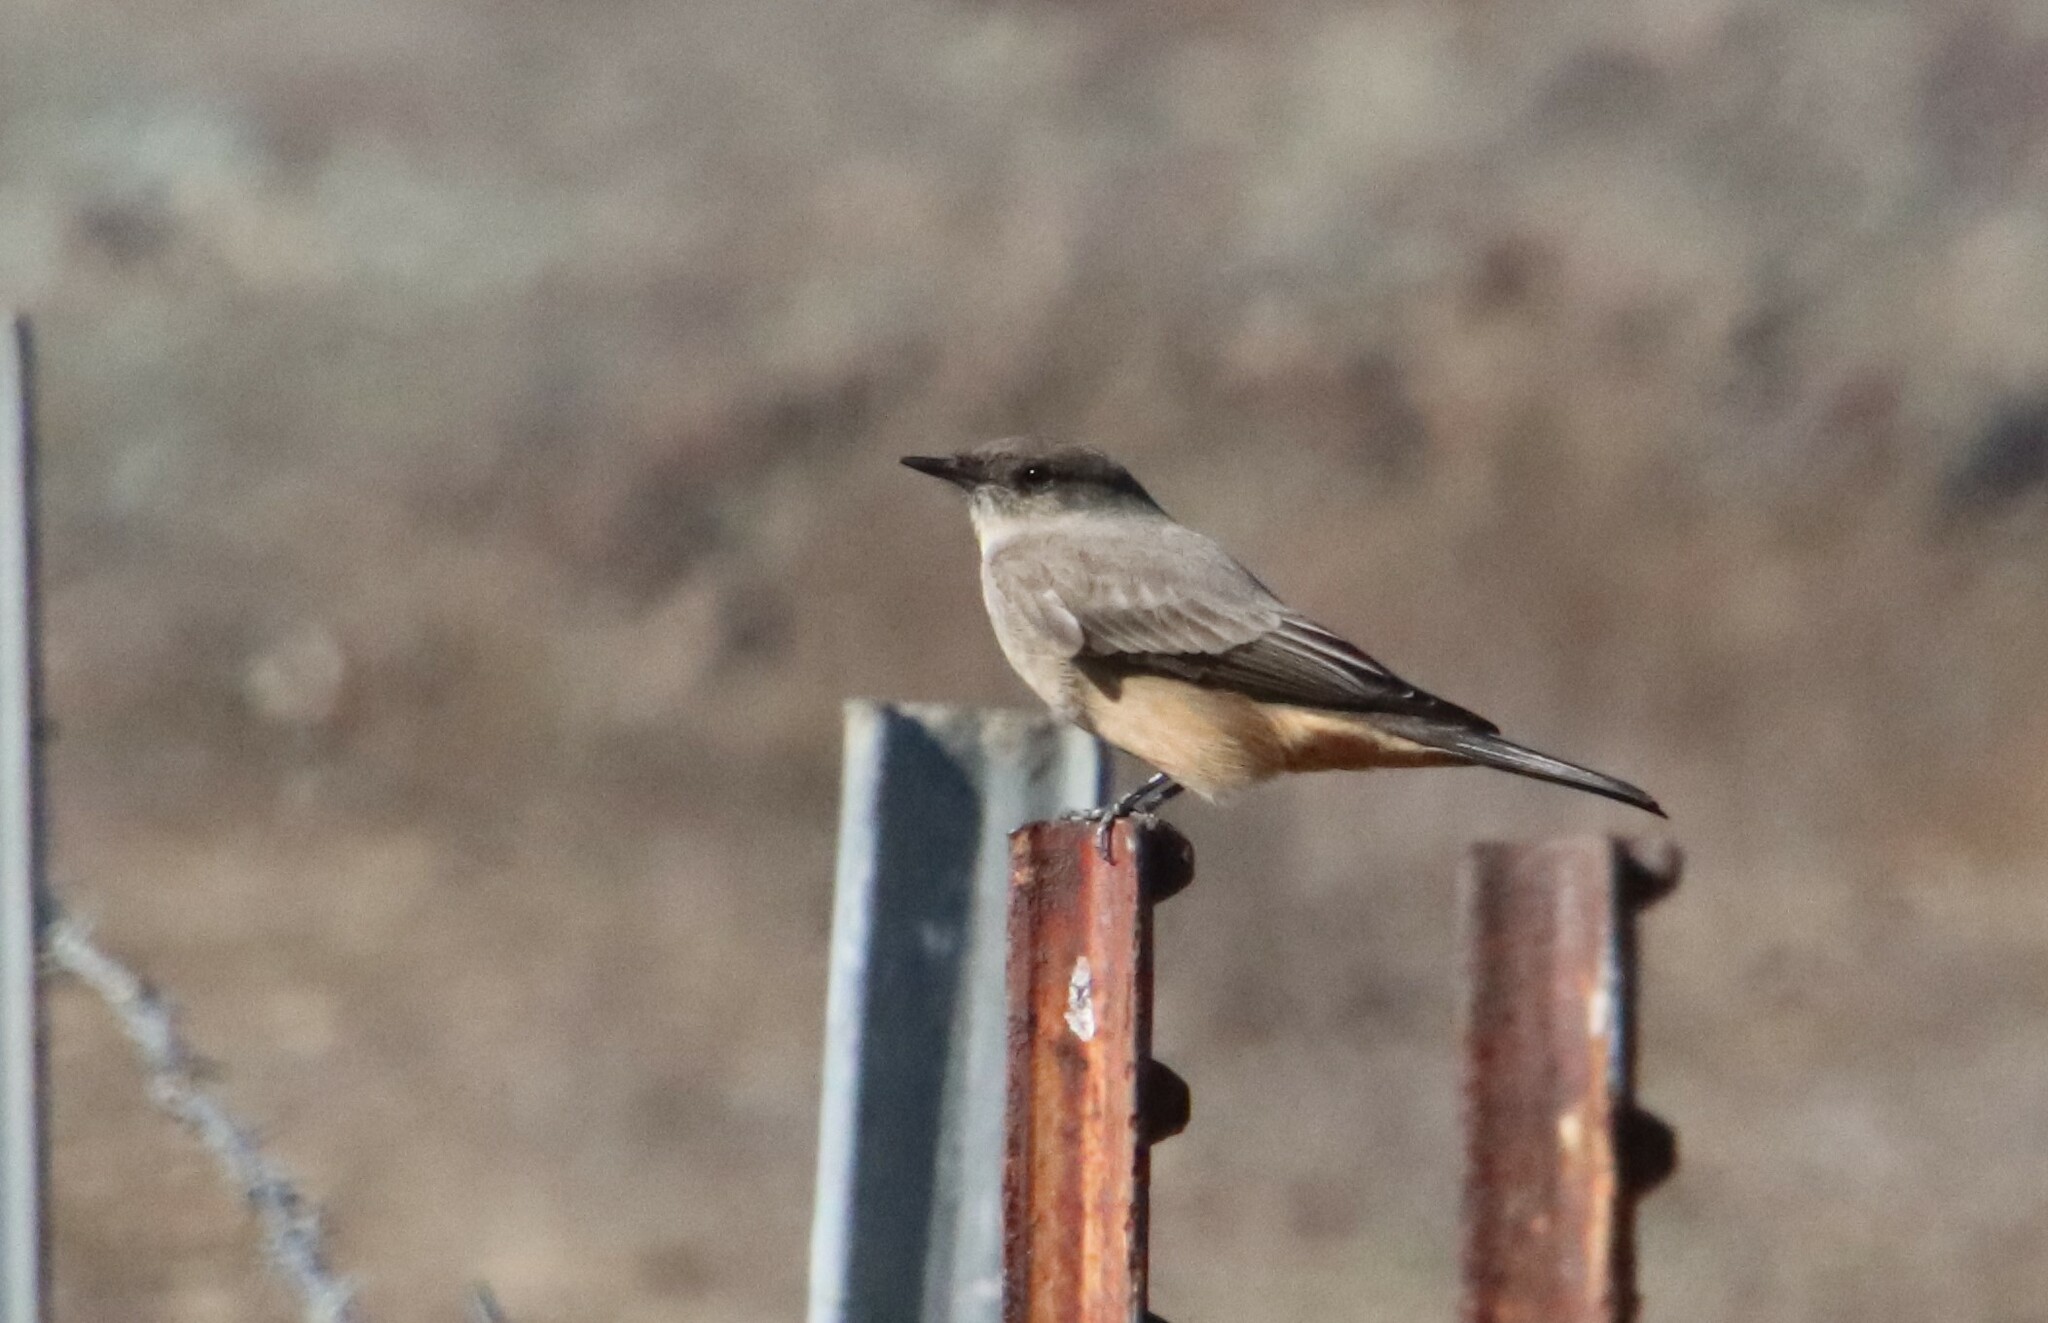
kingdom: Animalia
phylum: Chordata
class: Aves
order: Passeriformes
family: Tyrannidae
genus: Sayornis
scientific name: Sayornis saya
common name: Say's phoebe
